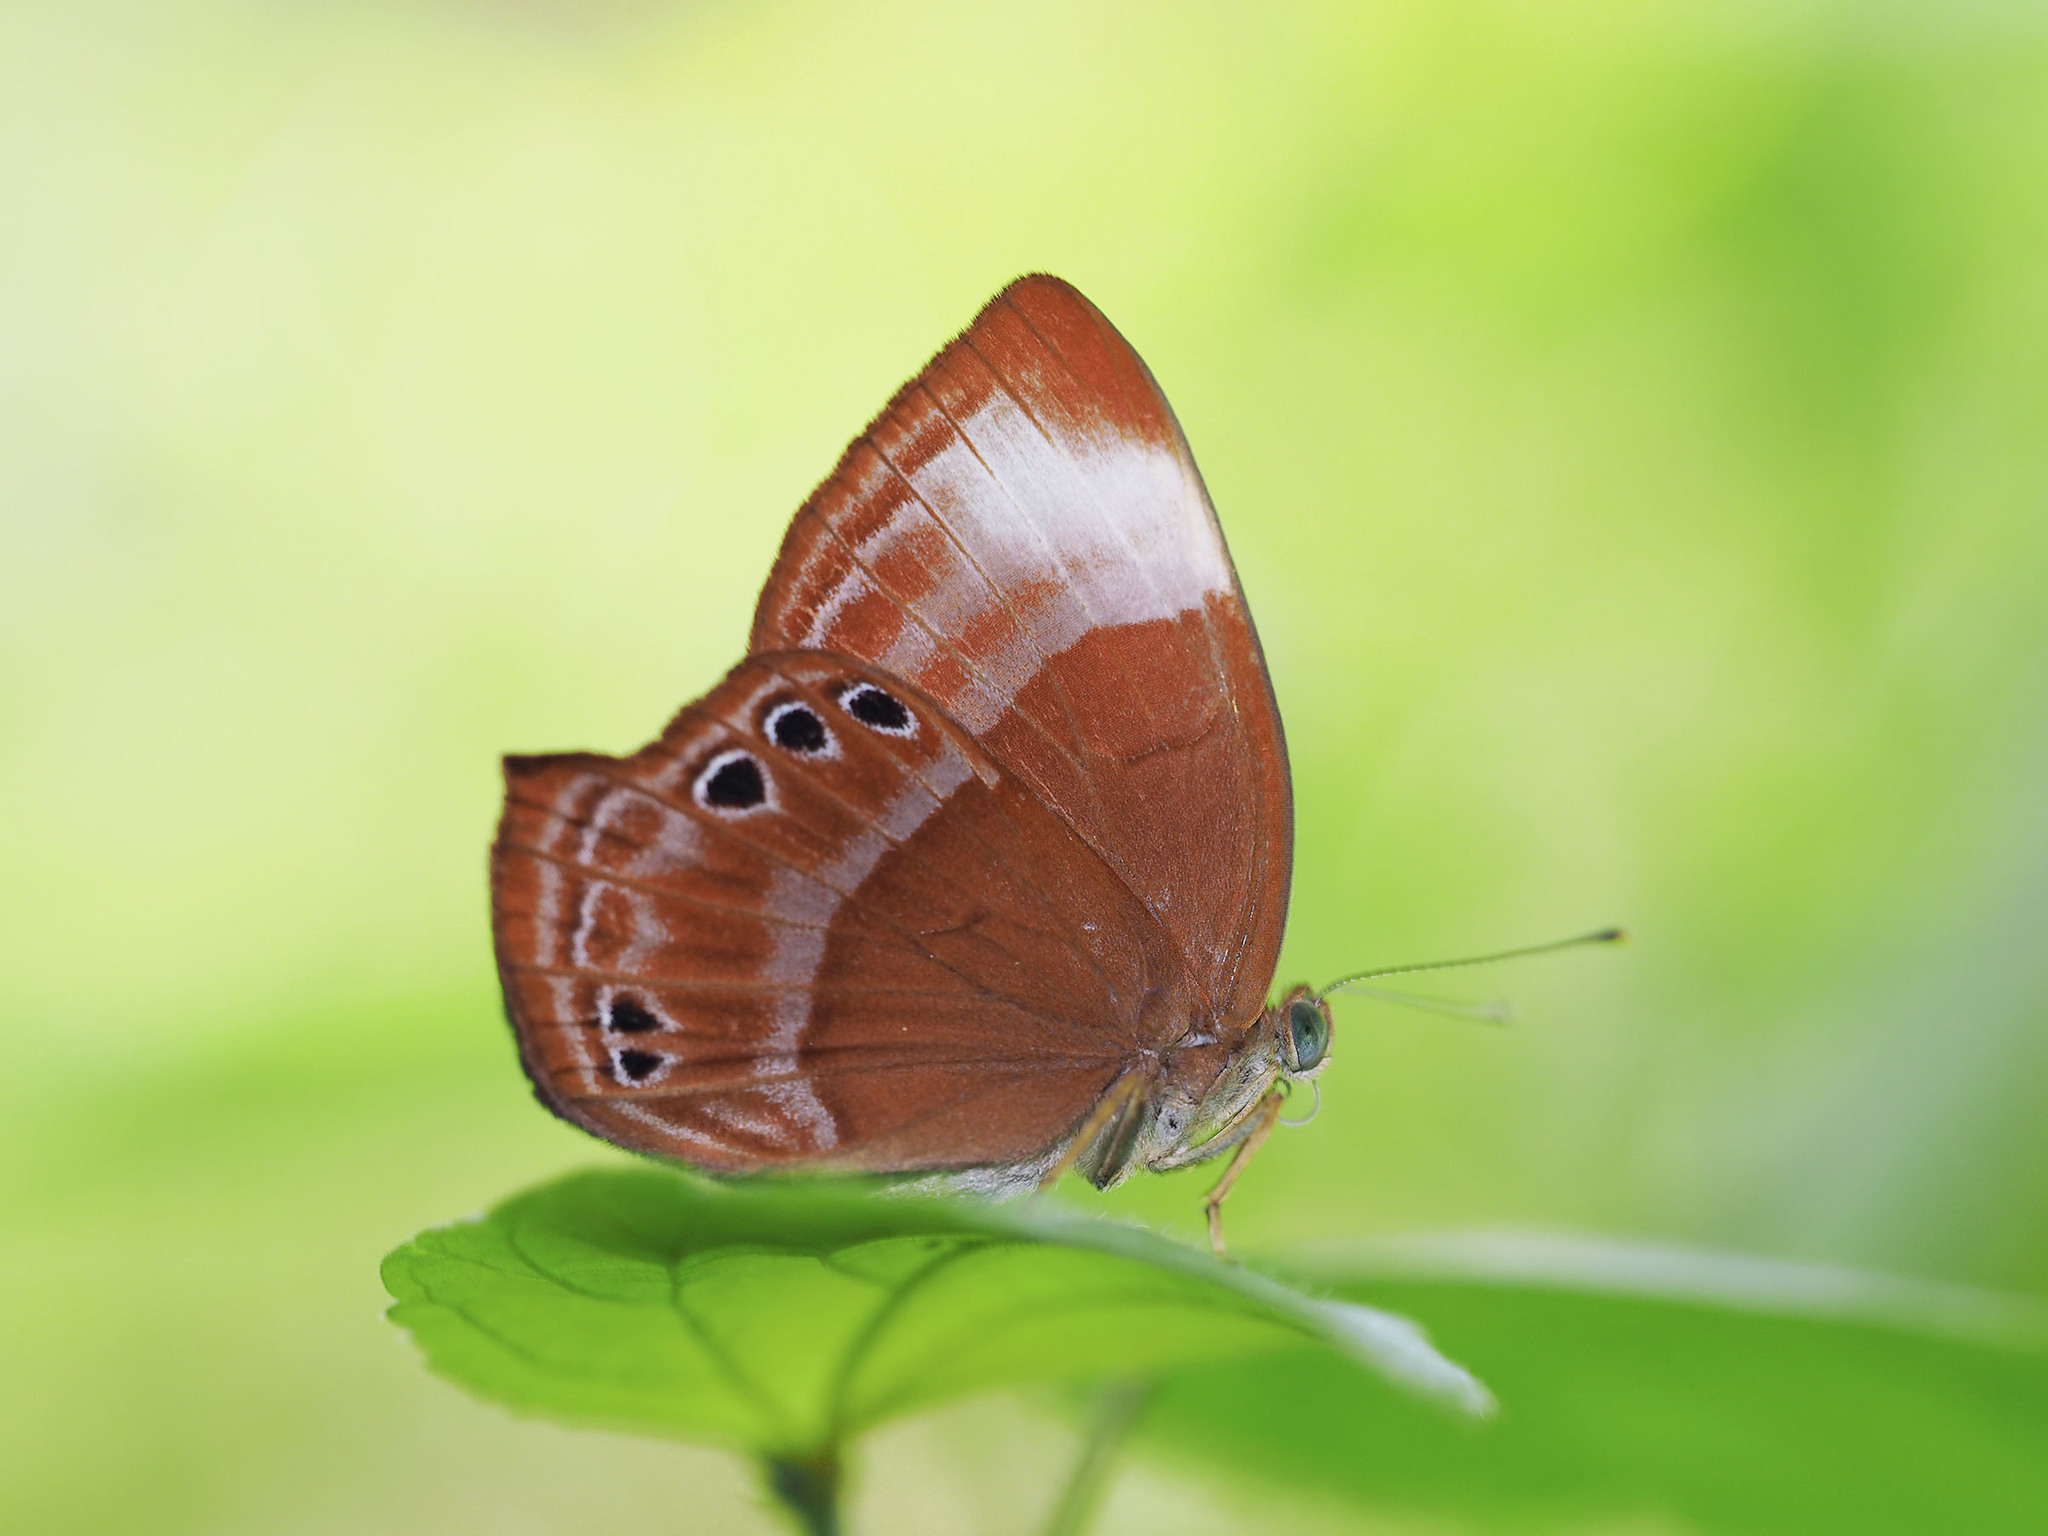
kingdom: Animalia
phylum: Arthropoda
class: Insecta
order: Lepidoptera
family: Lycaenidae
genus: Abisara
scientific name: Abisara saturata
